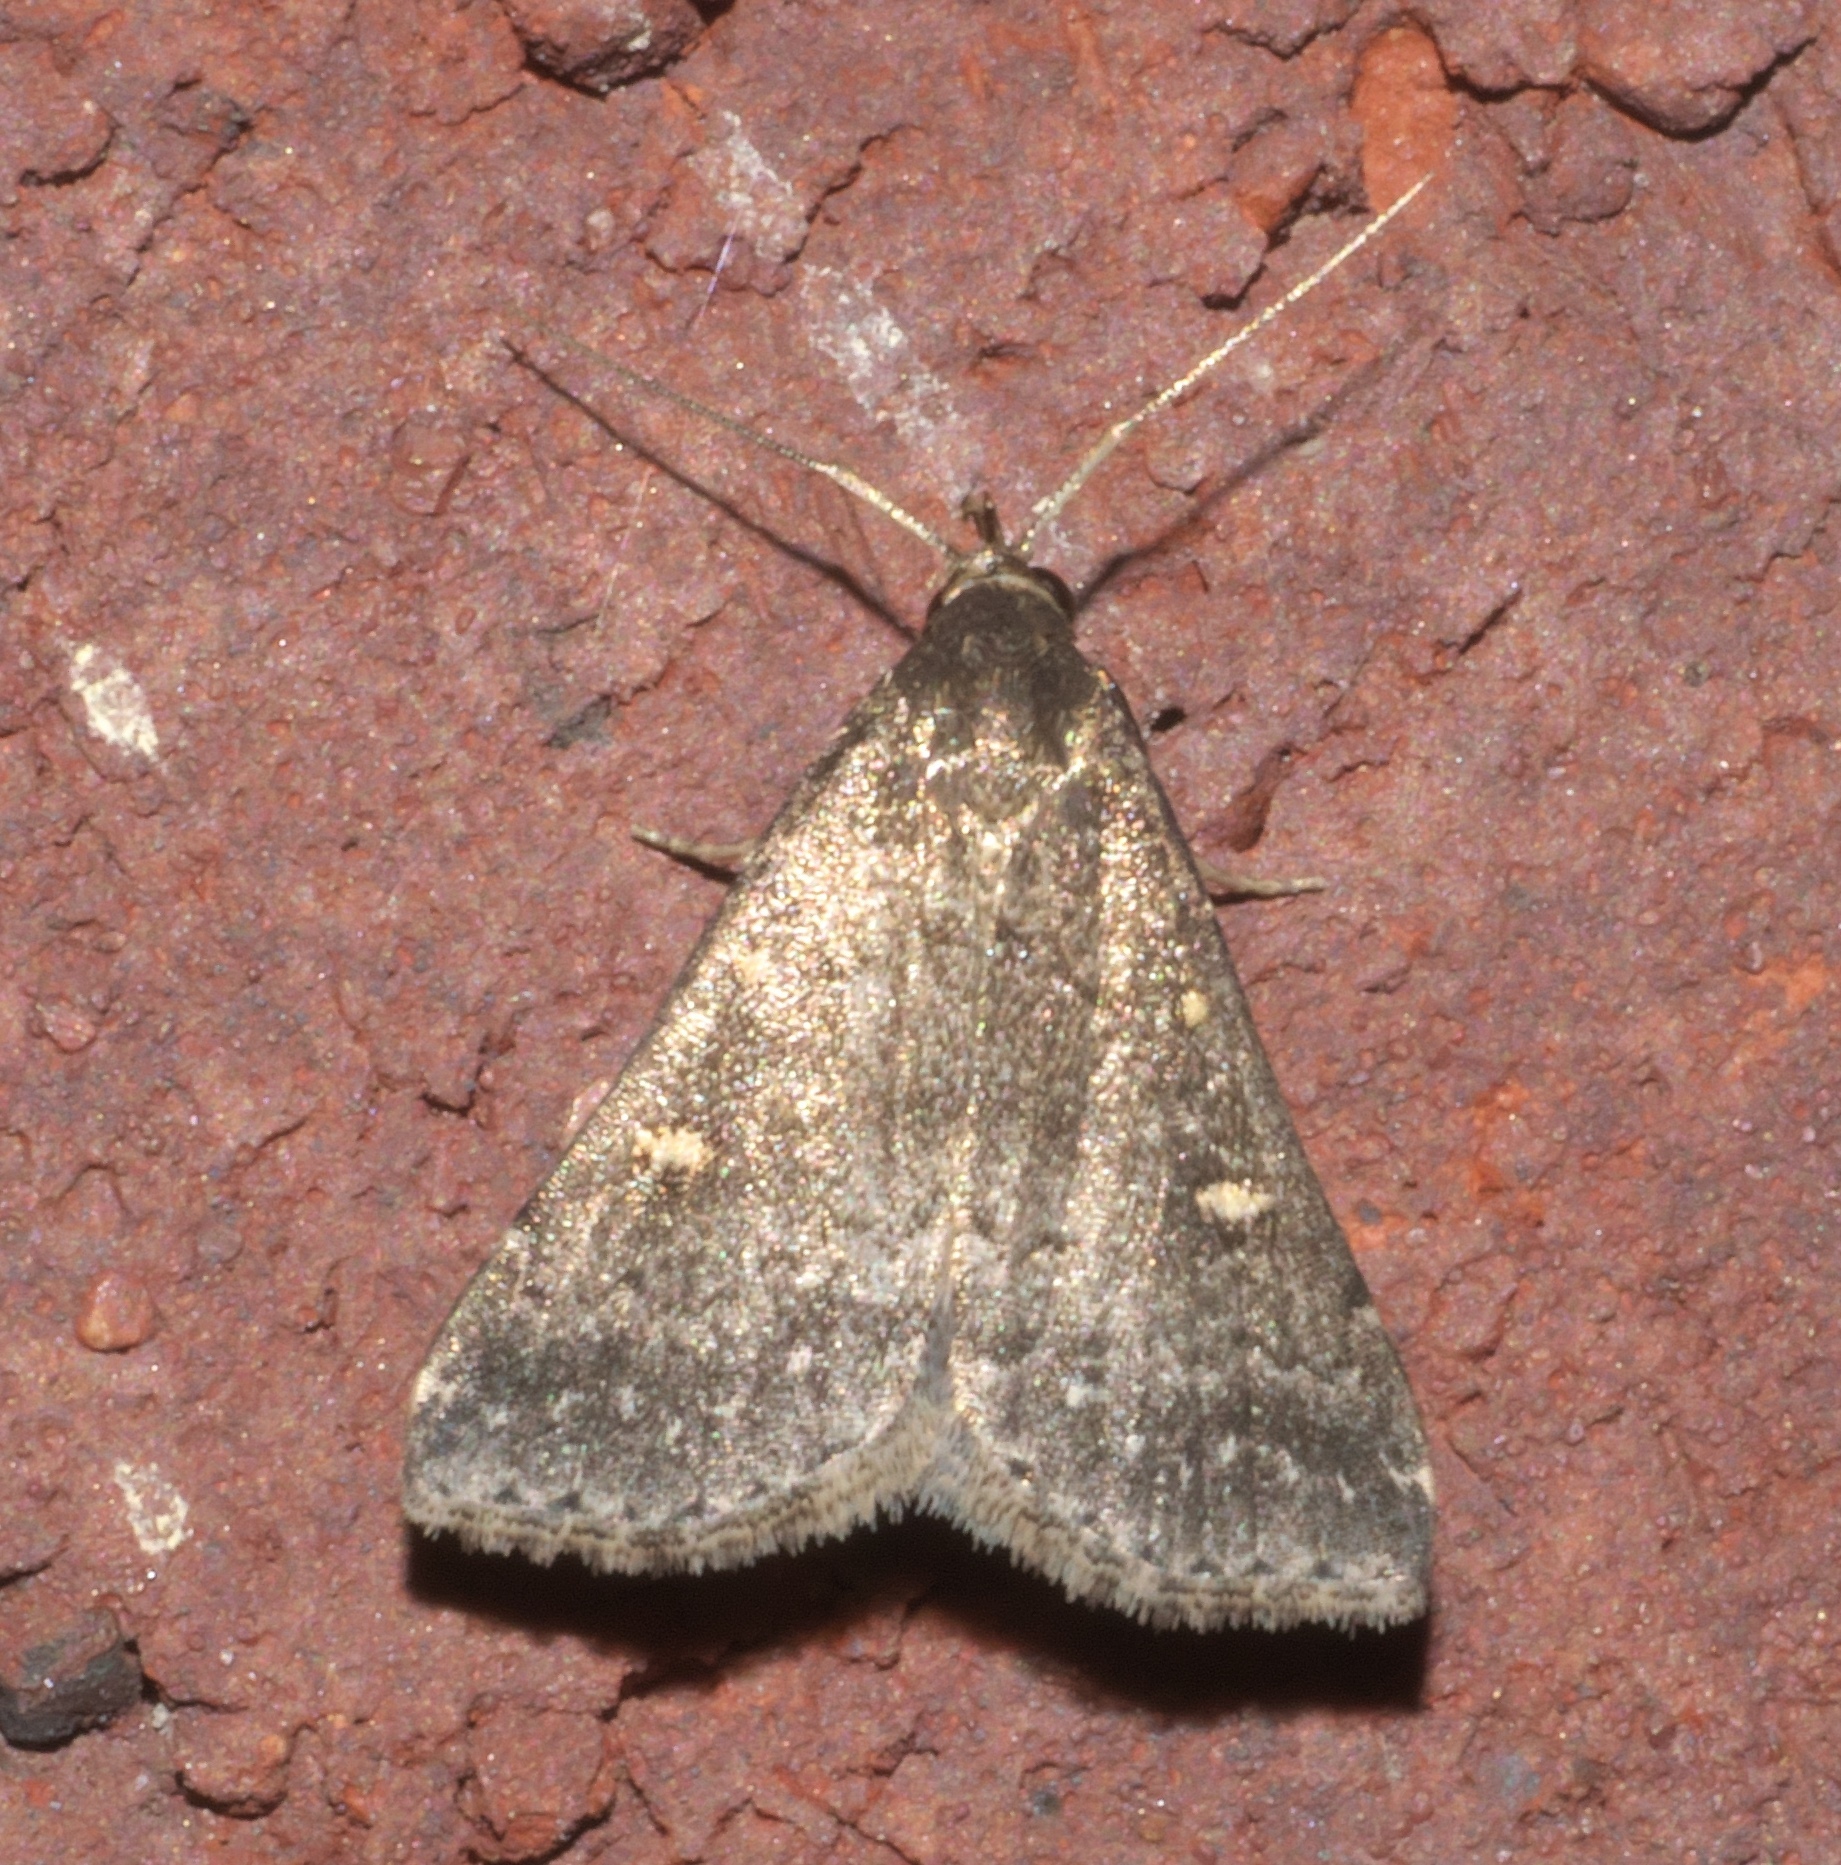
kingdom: Animalia
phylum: Arthropoda
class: Insecta
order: Lepidoptera
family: Erebidae
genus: Tetanolita
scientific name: Tetanolita mynesalis
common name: Smoky tetanolita moth
